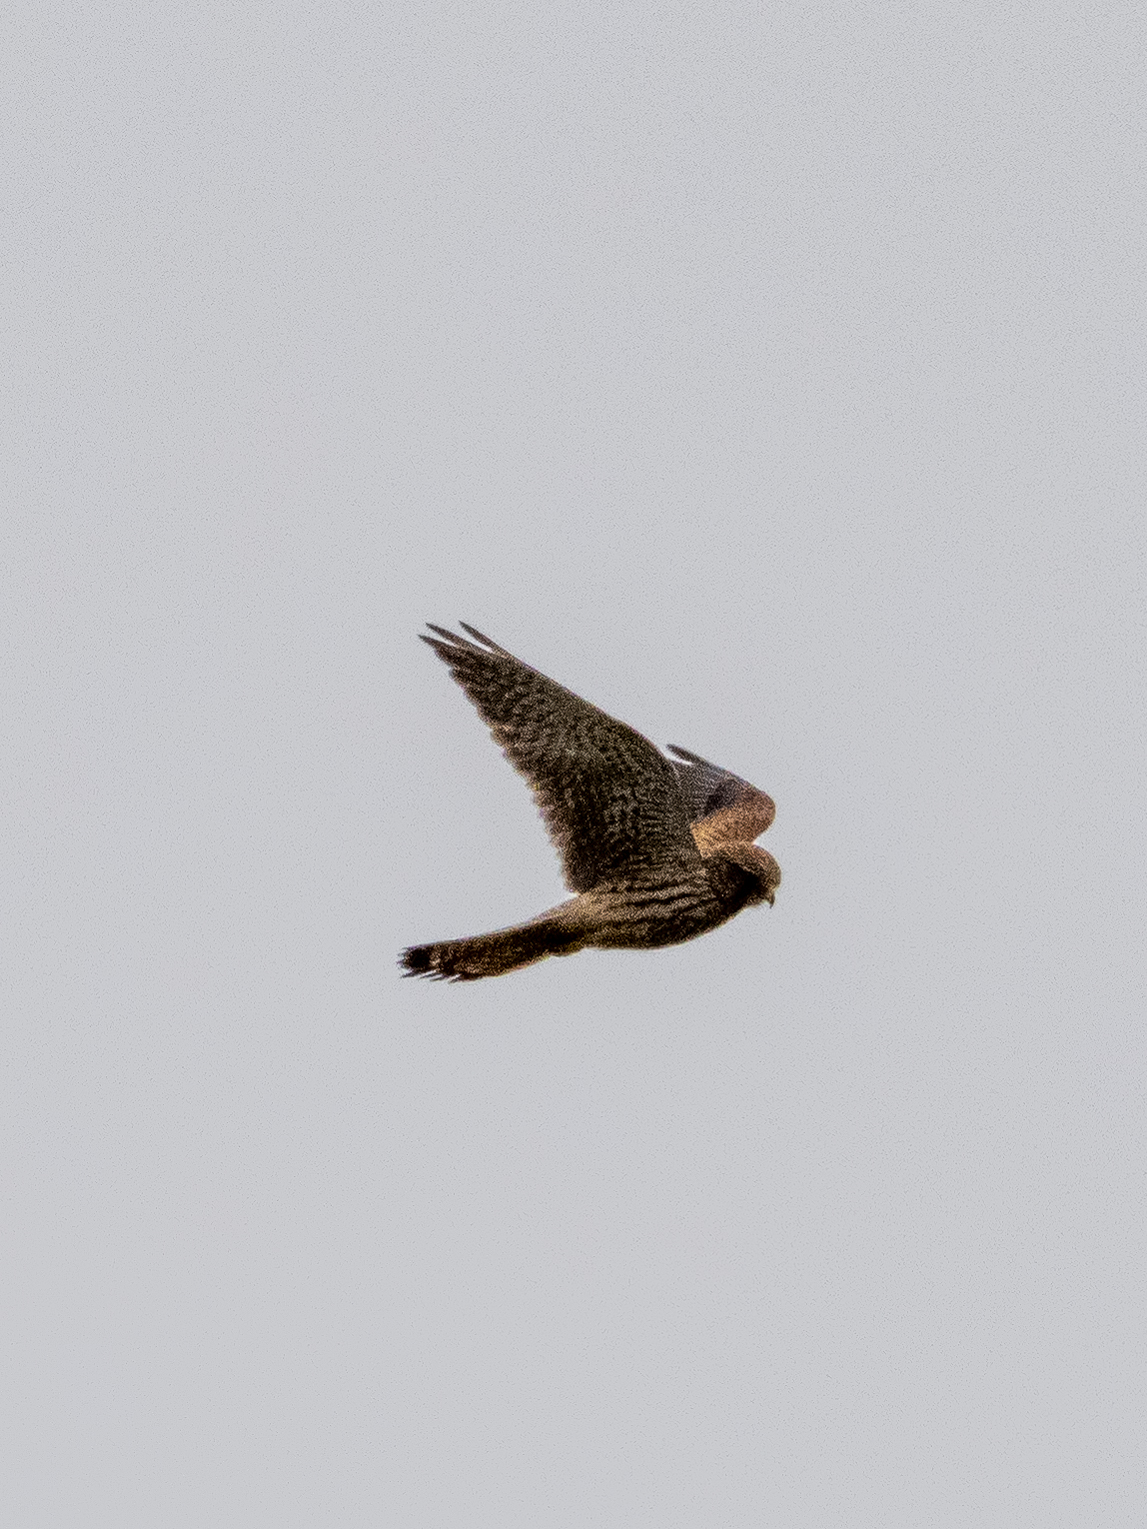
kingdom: Animalia
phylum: Chordata
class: Aves
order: Falconiformes
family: Falconidae
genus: Falco
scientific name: Falco tinnunculus
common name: Common kestrel
